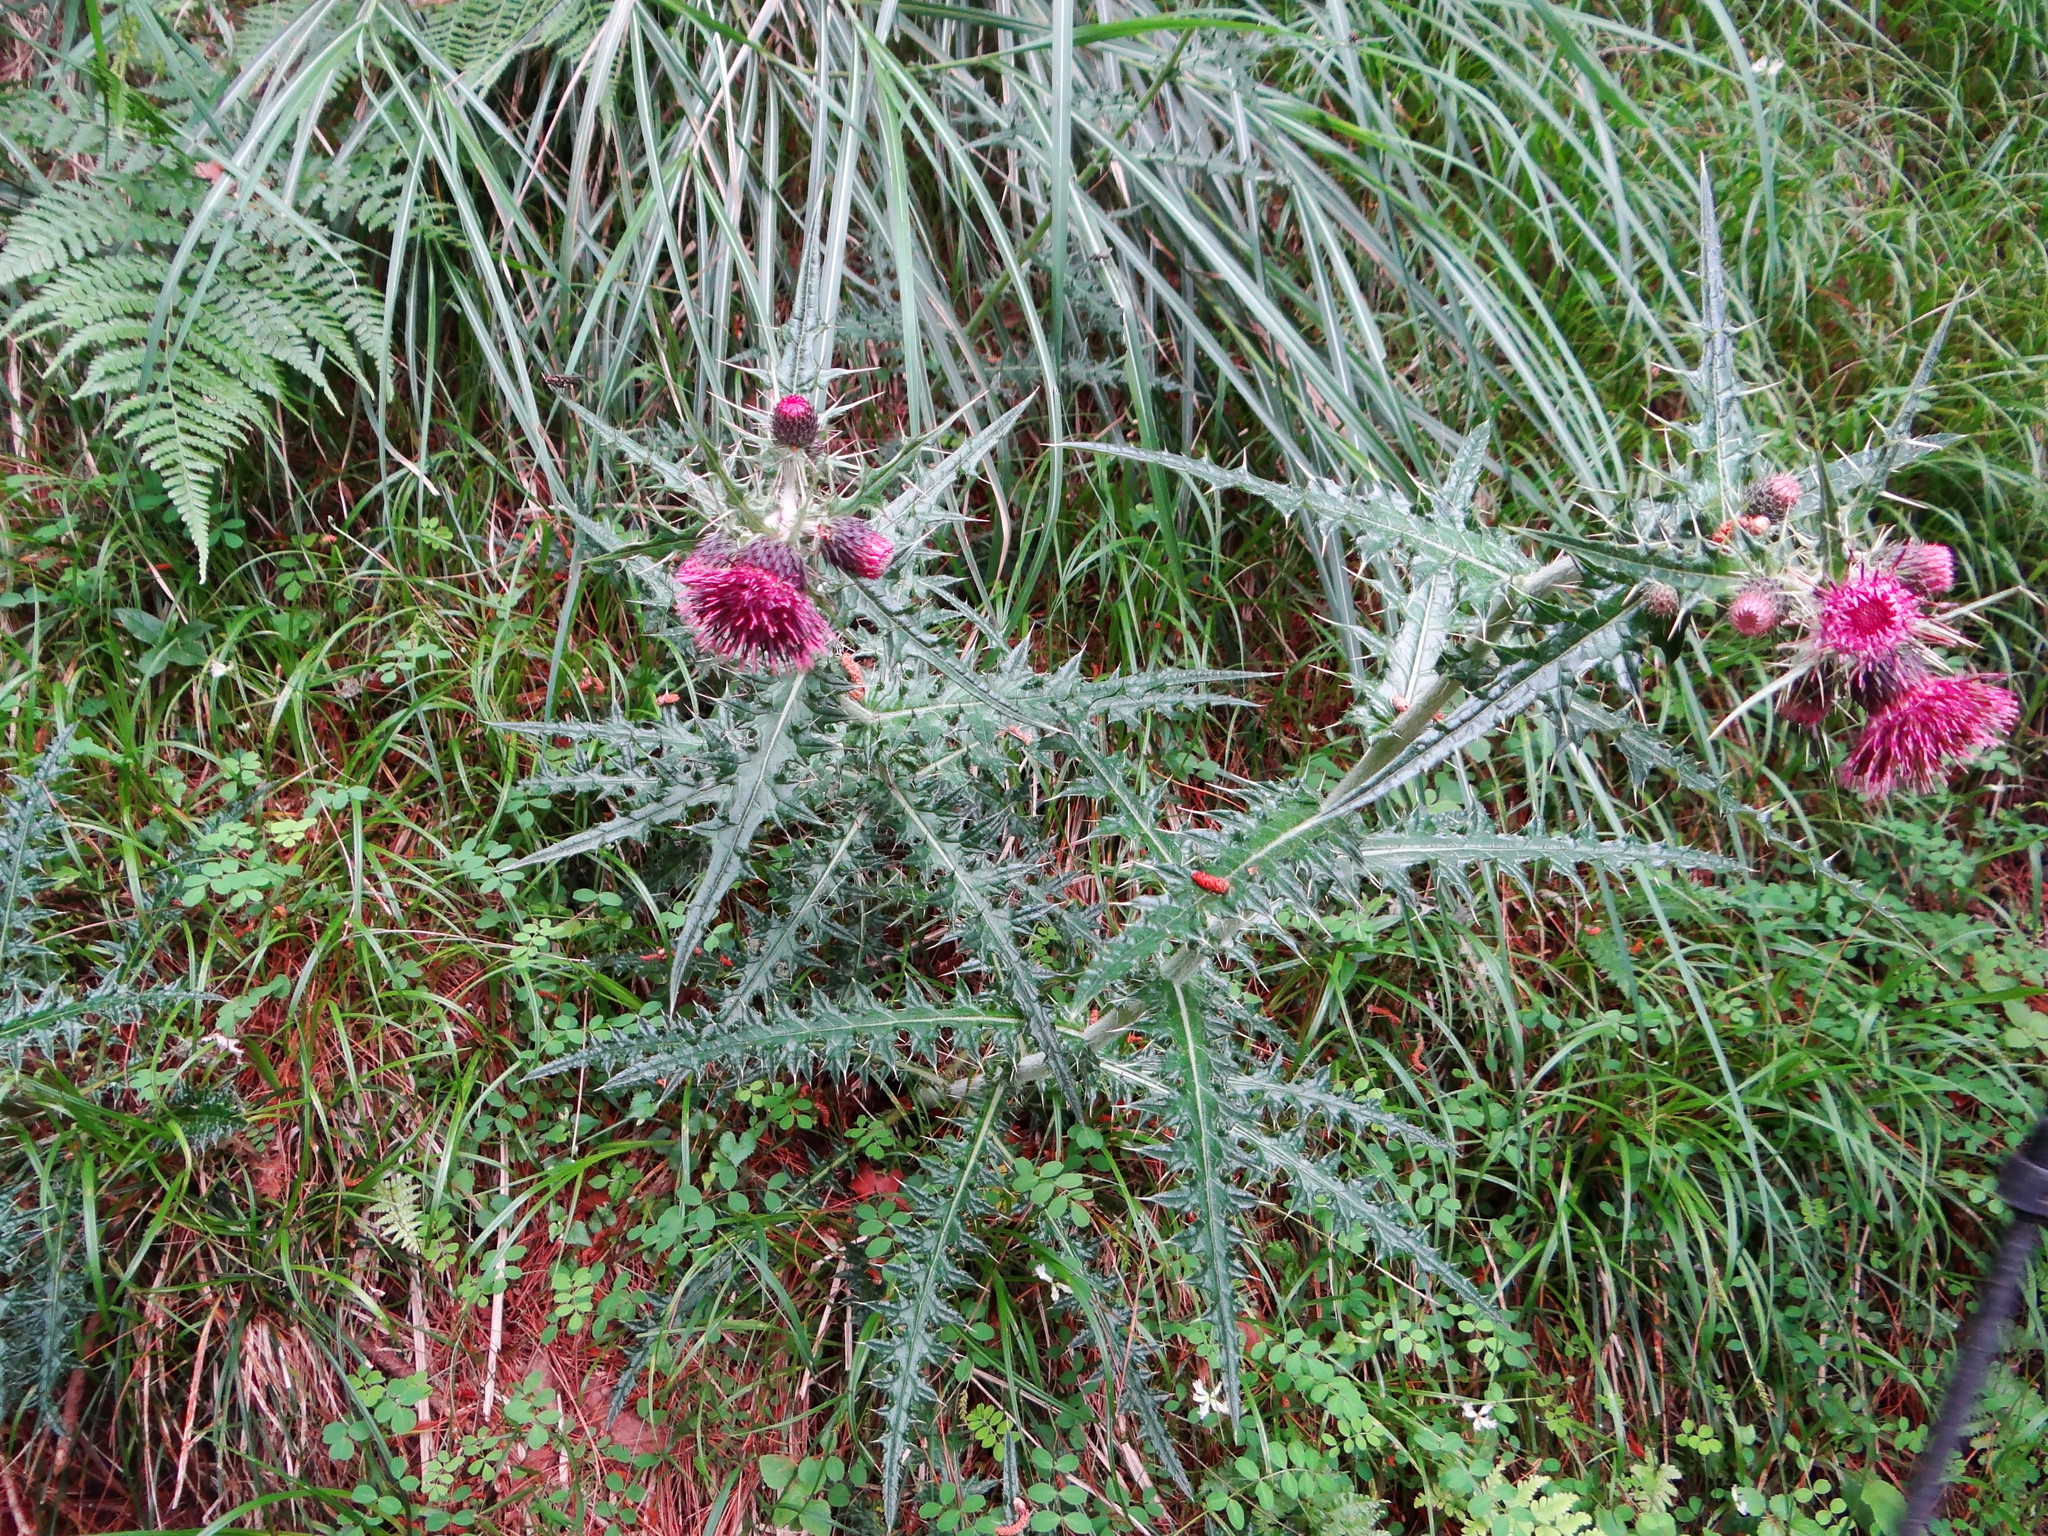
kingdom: Plantae
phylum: Tracheophyta
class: Magnoliopsida
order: Asterales
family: Asteraceae
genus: Cirsium
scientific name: Cirsium suzukii
